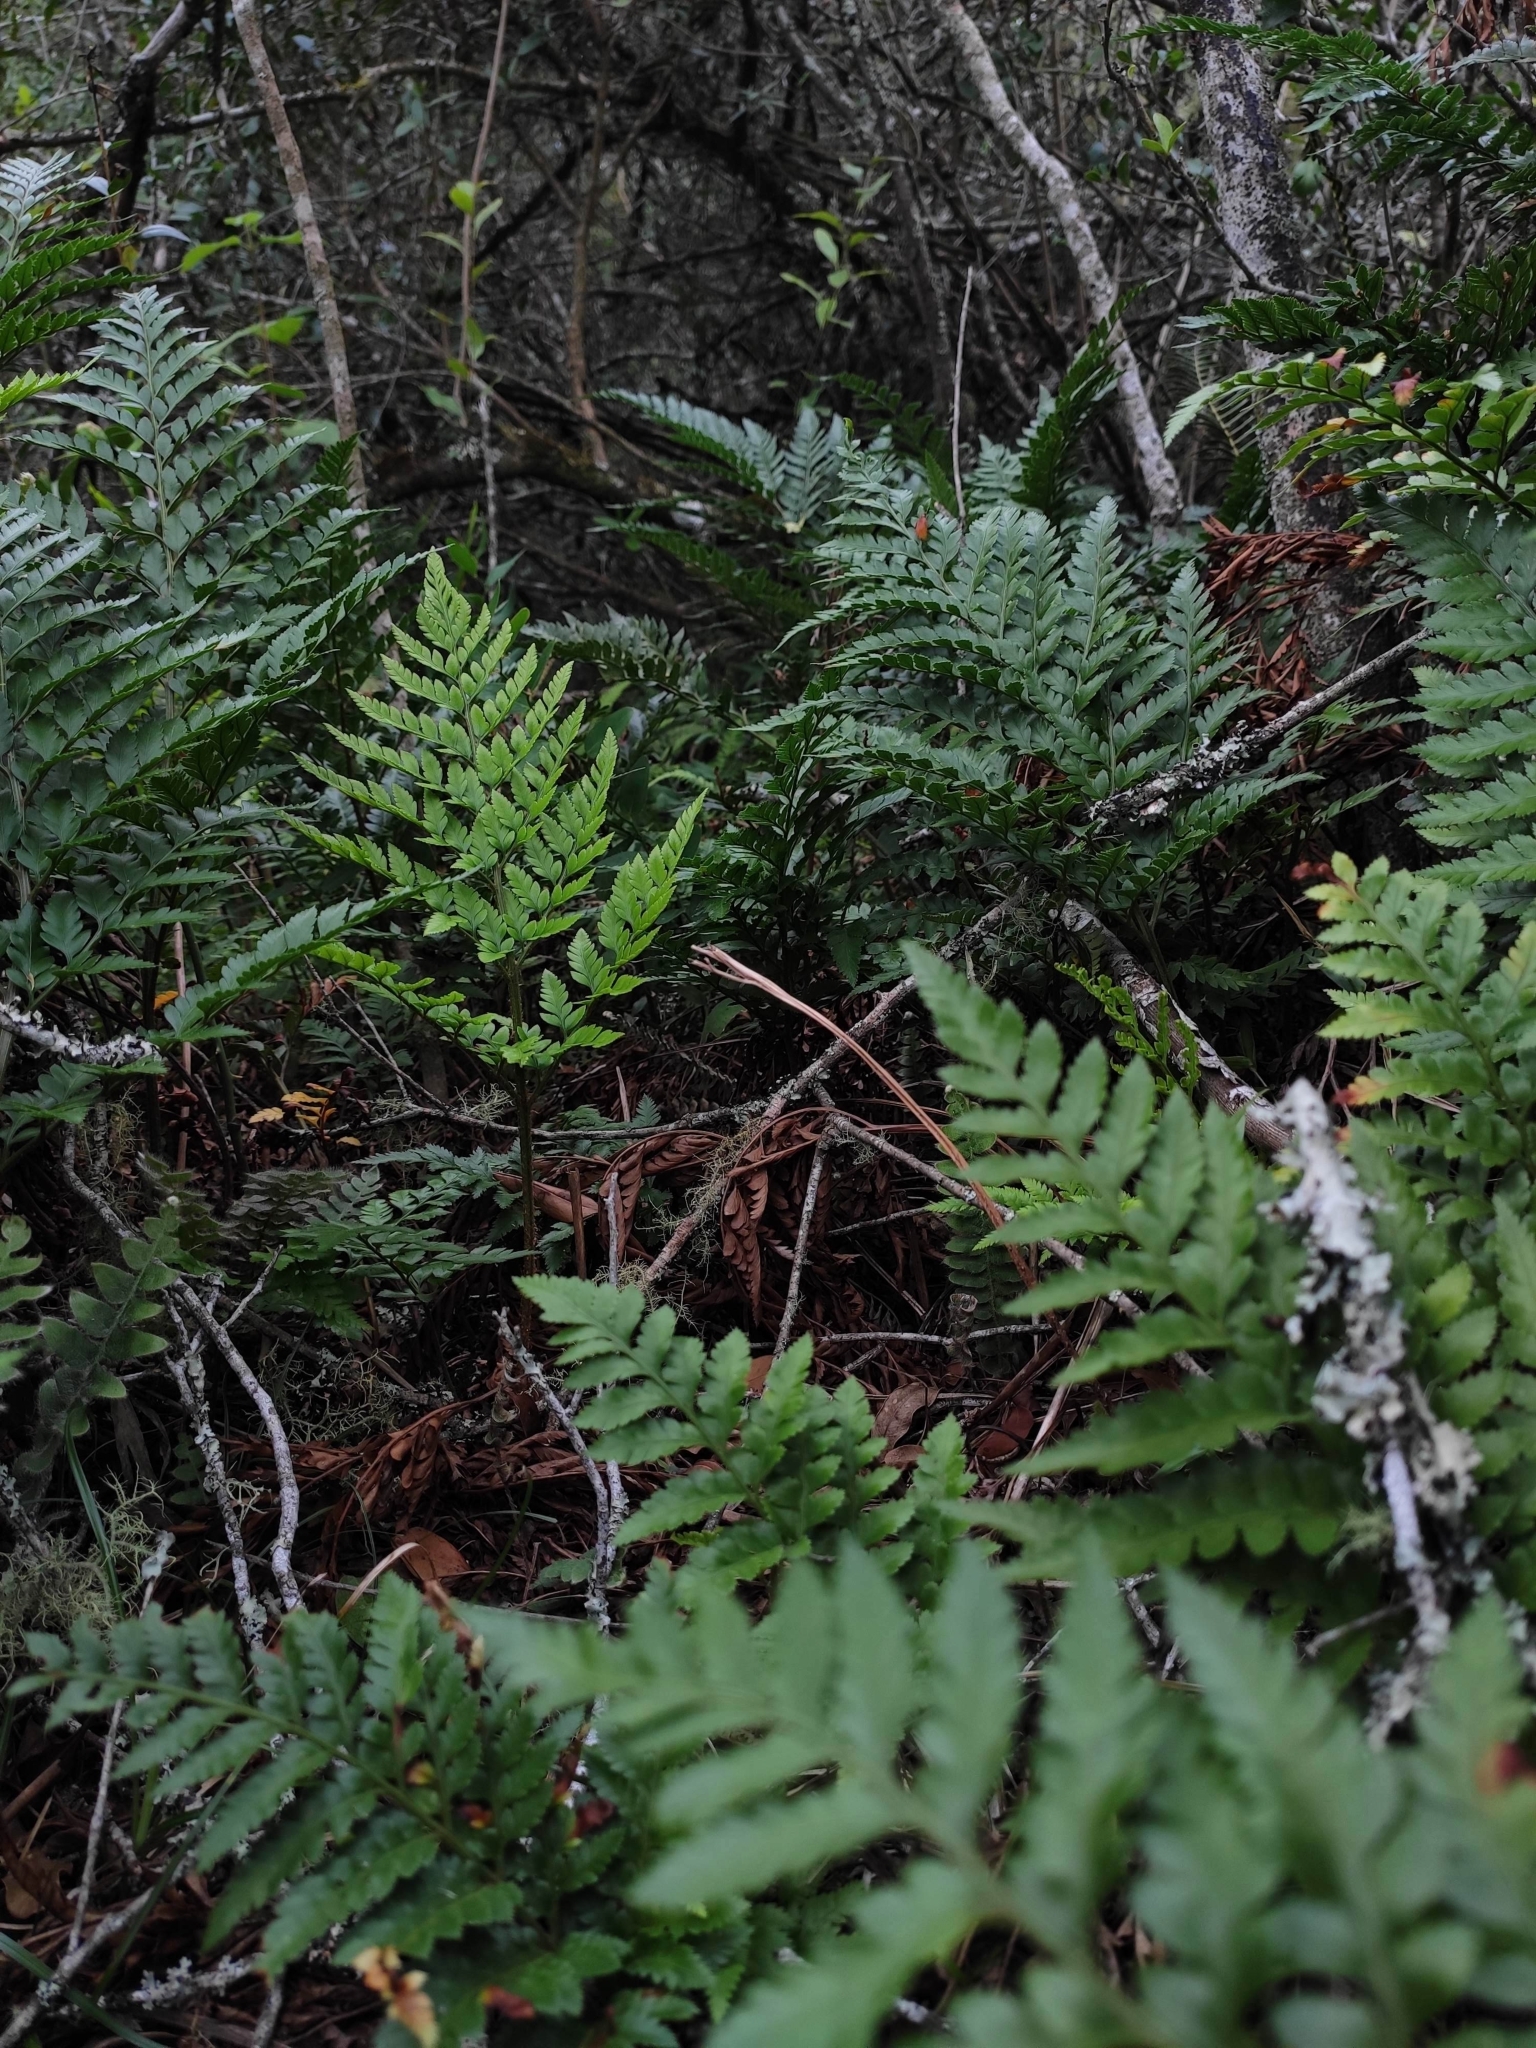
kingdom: Plantae
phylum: Tracheophyta
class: Polypodiopsida
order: Polypodiales
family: Dryopteridaceae
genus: Rumohra
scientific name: Rumohra adiantiformis
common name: Leather fern
